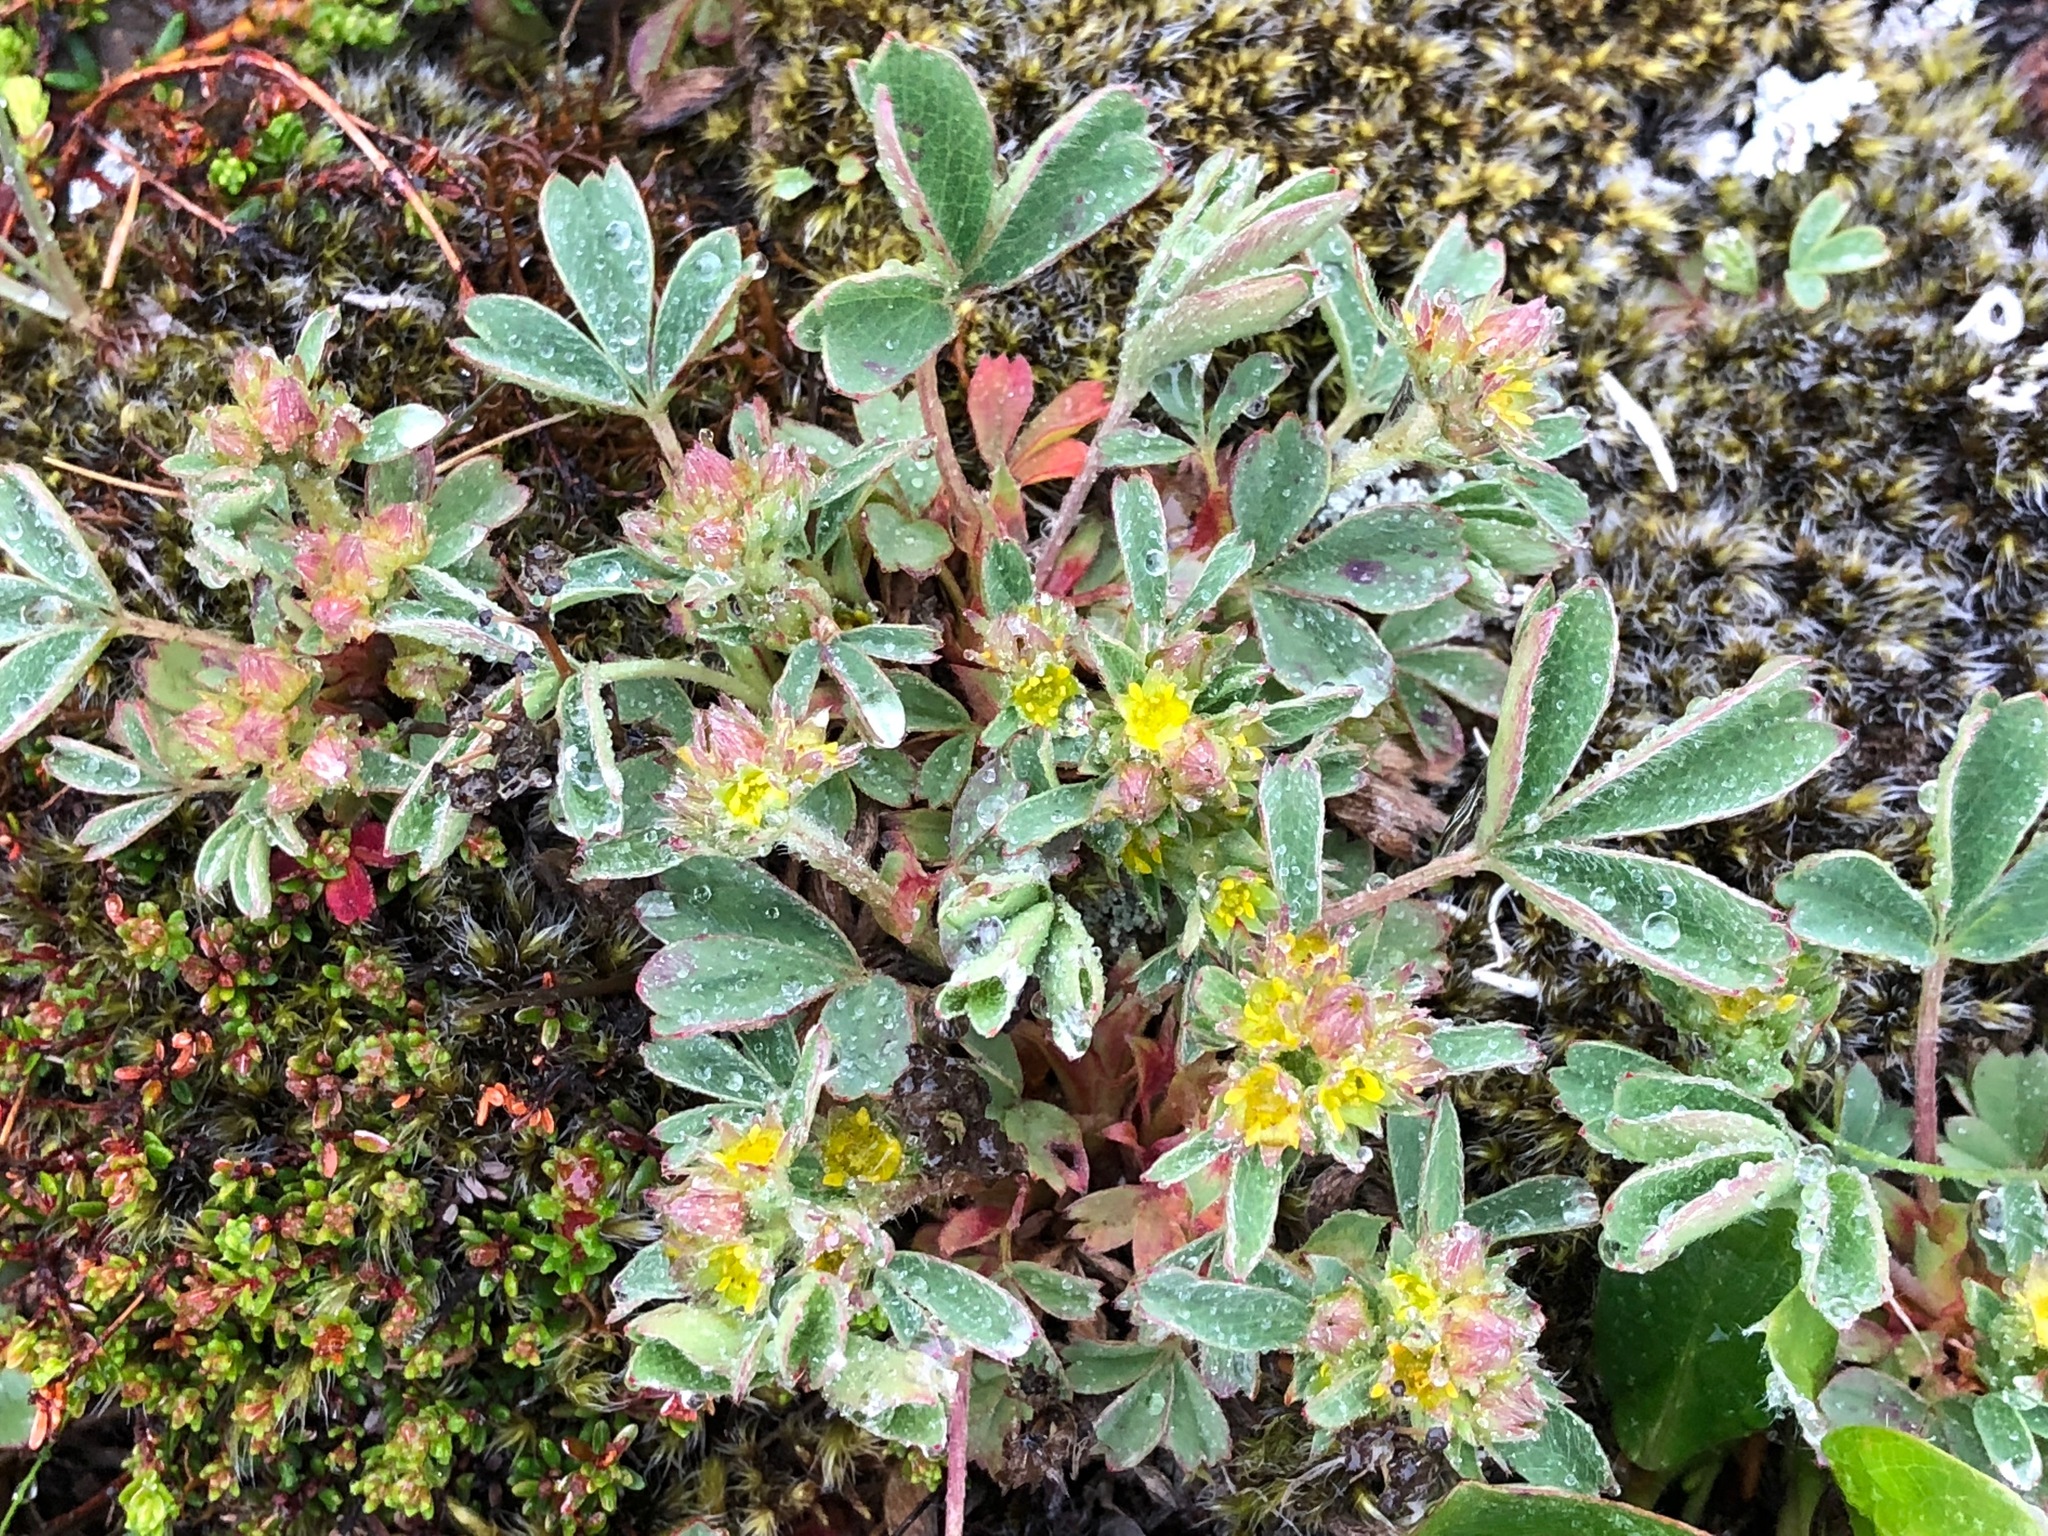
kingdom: Plantae
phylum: Tracheophyta
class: Magnoliopsida
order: Rosales
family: Rosaceae
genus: Sibbaldia
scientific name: Sibbaldia procumbens
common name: Creeping sibbaldia
